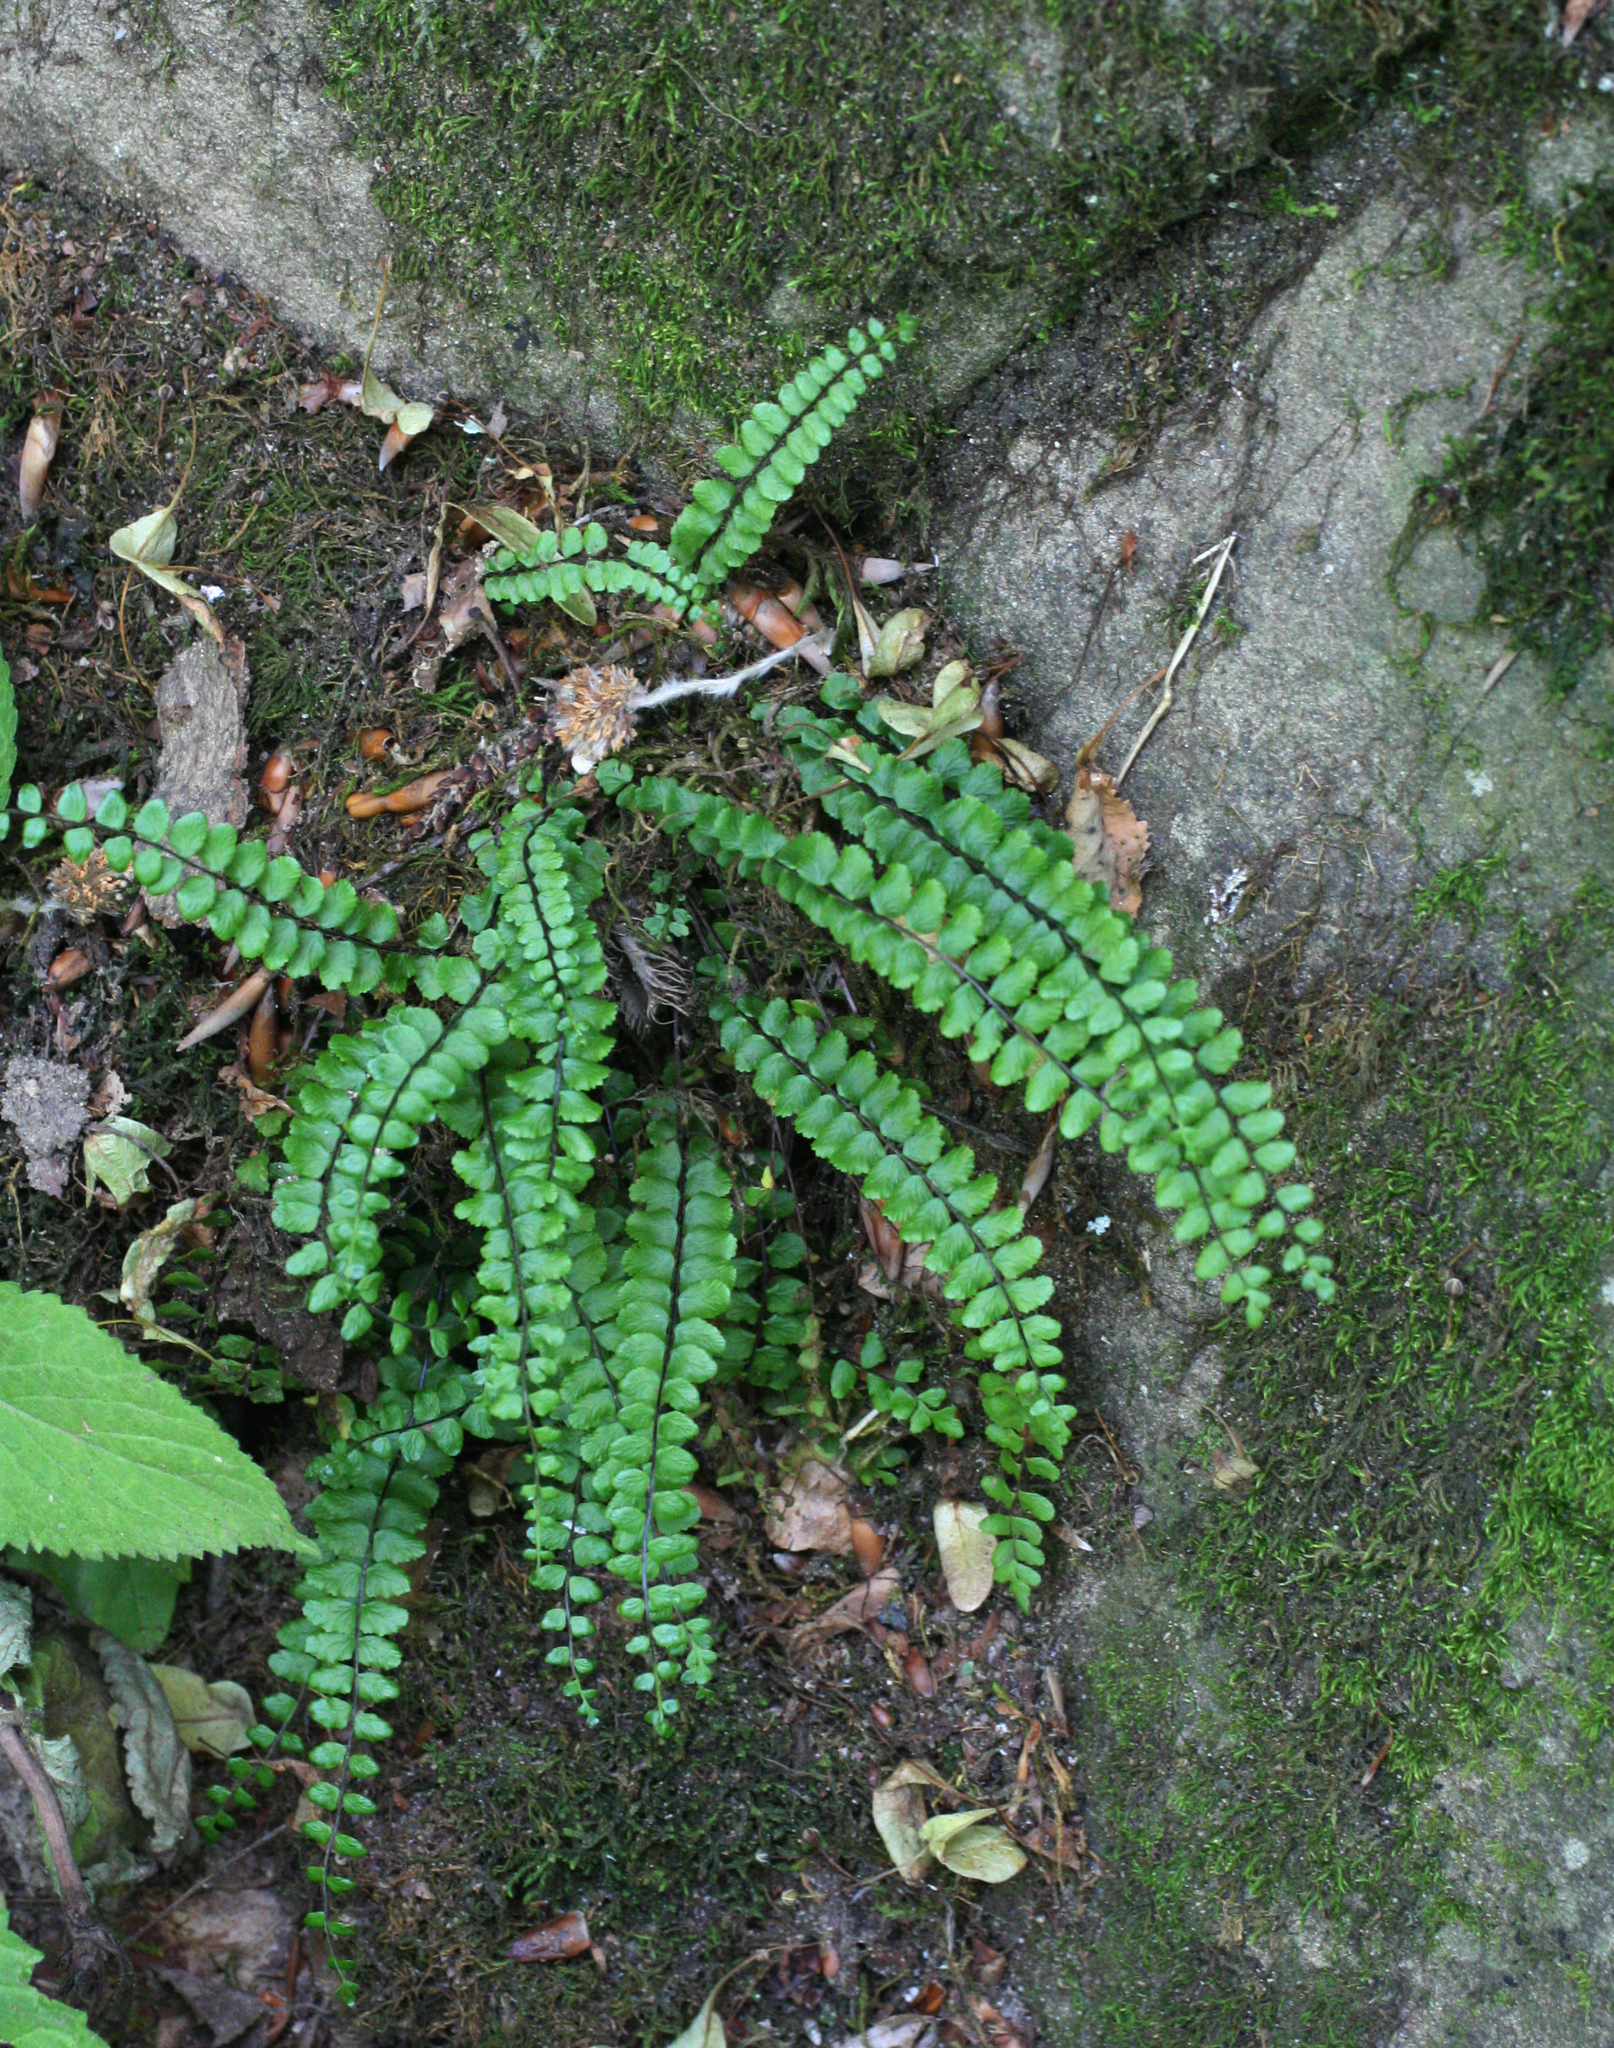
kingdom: Plantae
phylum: Tracheophyta
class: Polypodiopsida
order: Polypodiales
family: Aspleniaceae
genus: Asplenium
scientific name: Asplenium trichomanes
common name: Maidenhair spleenwort
